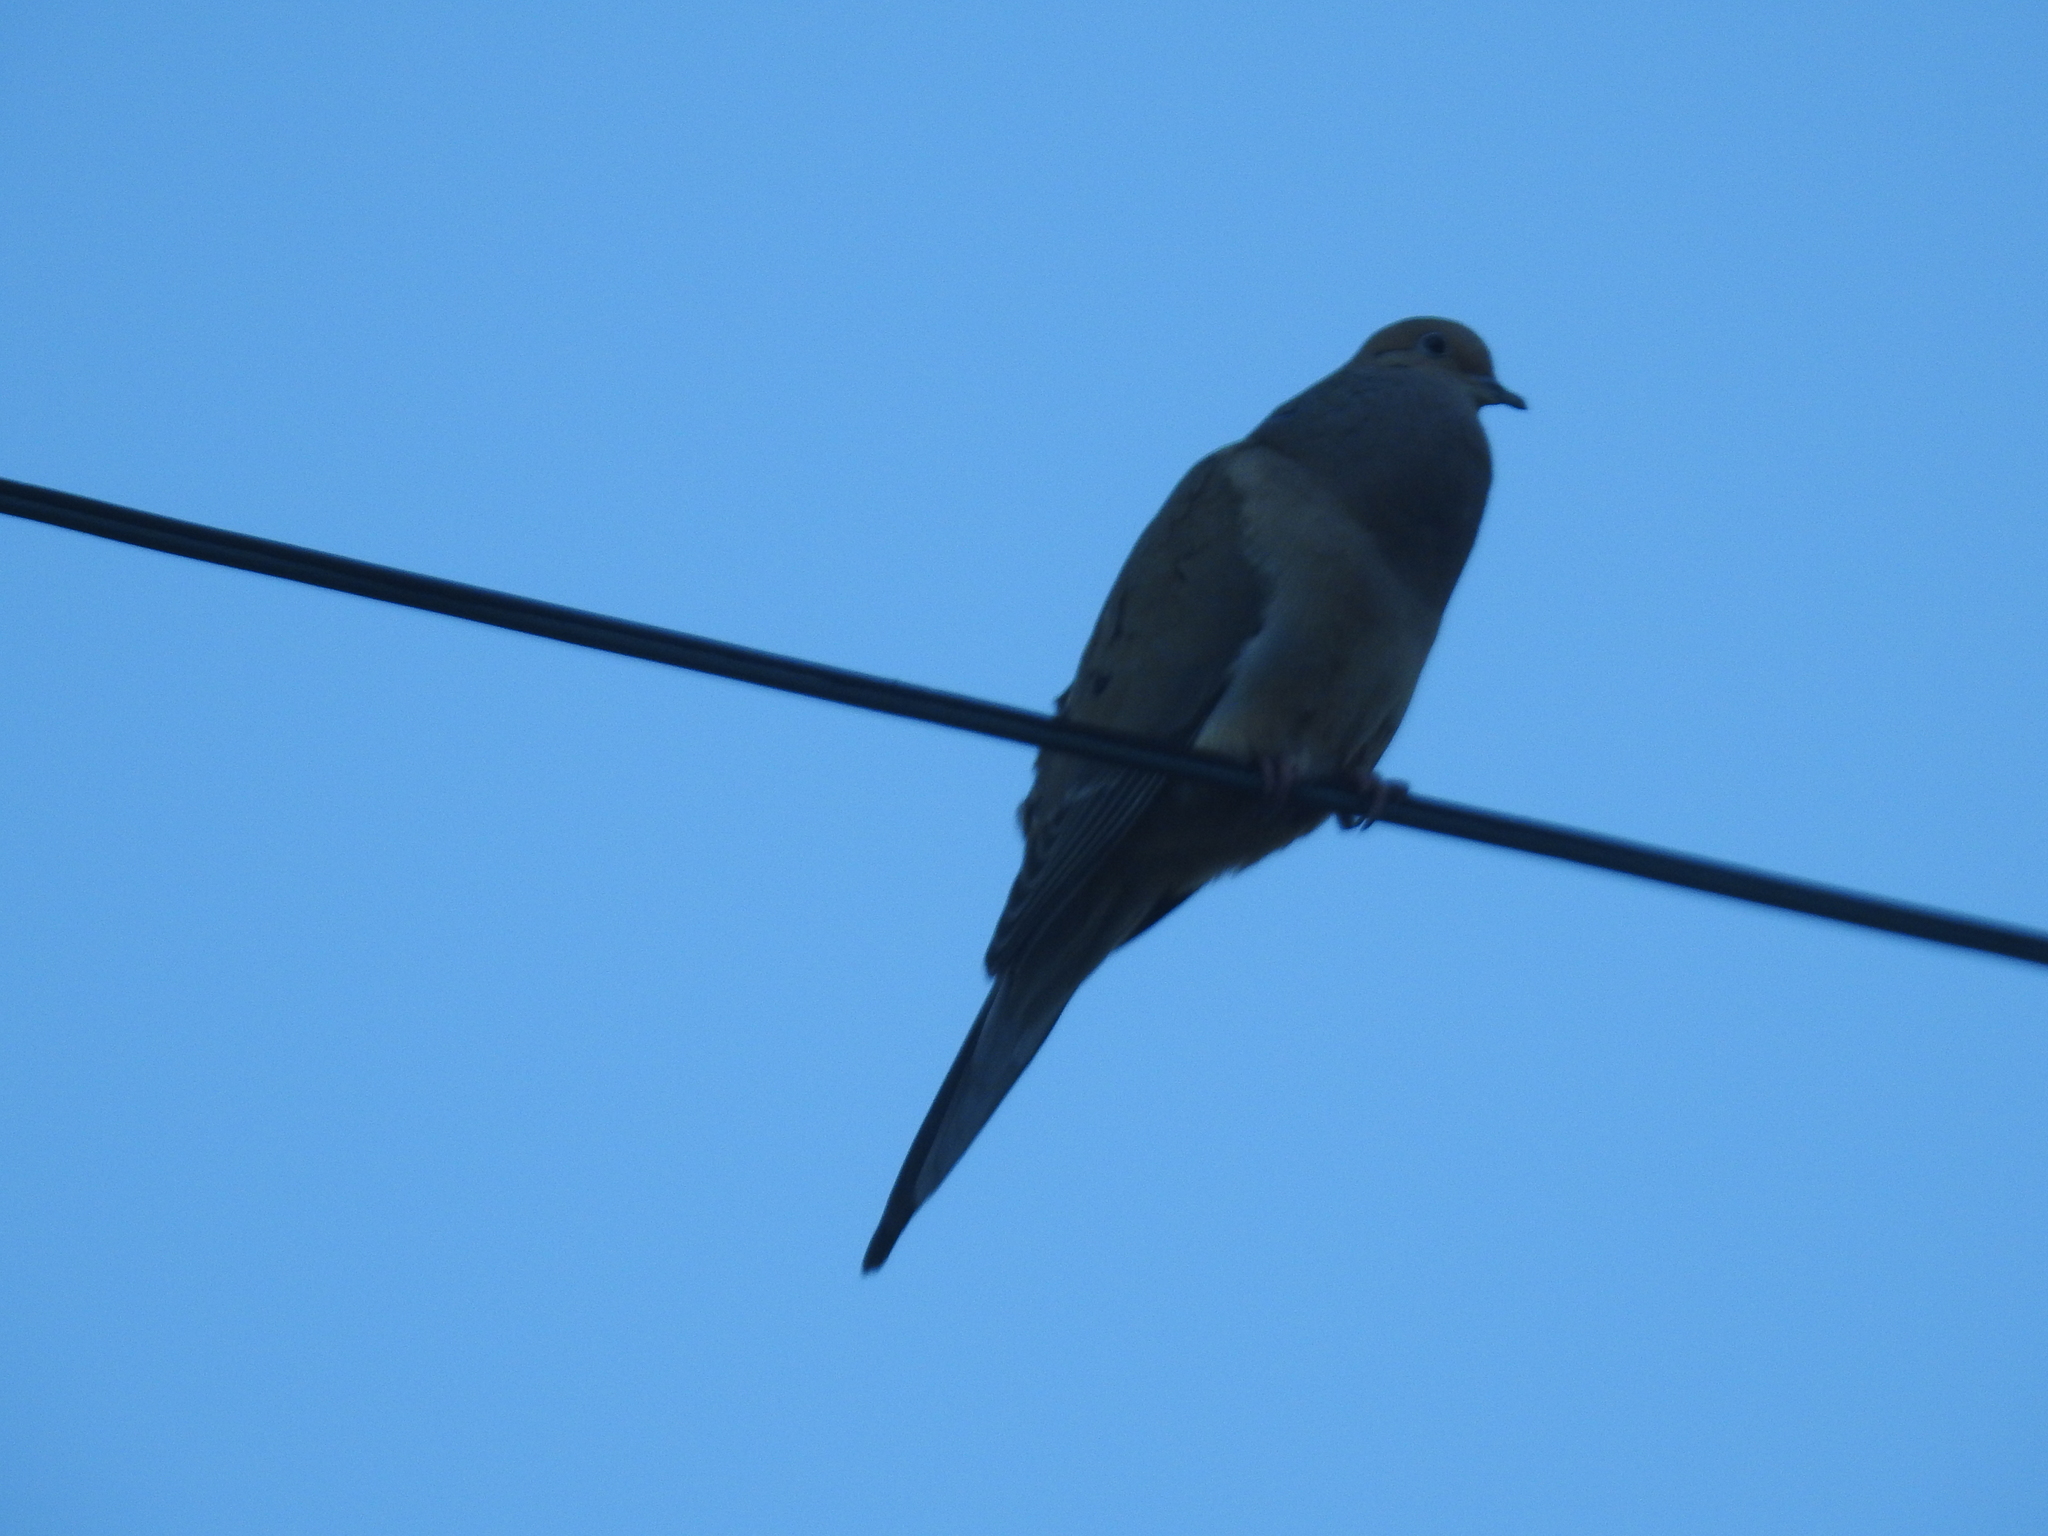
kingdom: Animalia
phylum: Chordata
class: Aves
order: Columbiformes
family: Columbidae
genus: Zenaida
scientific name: Zenaida macroura
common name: Mourning dove
